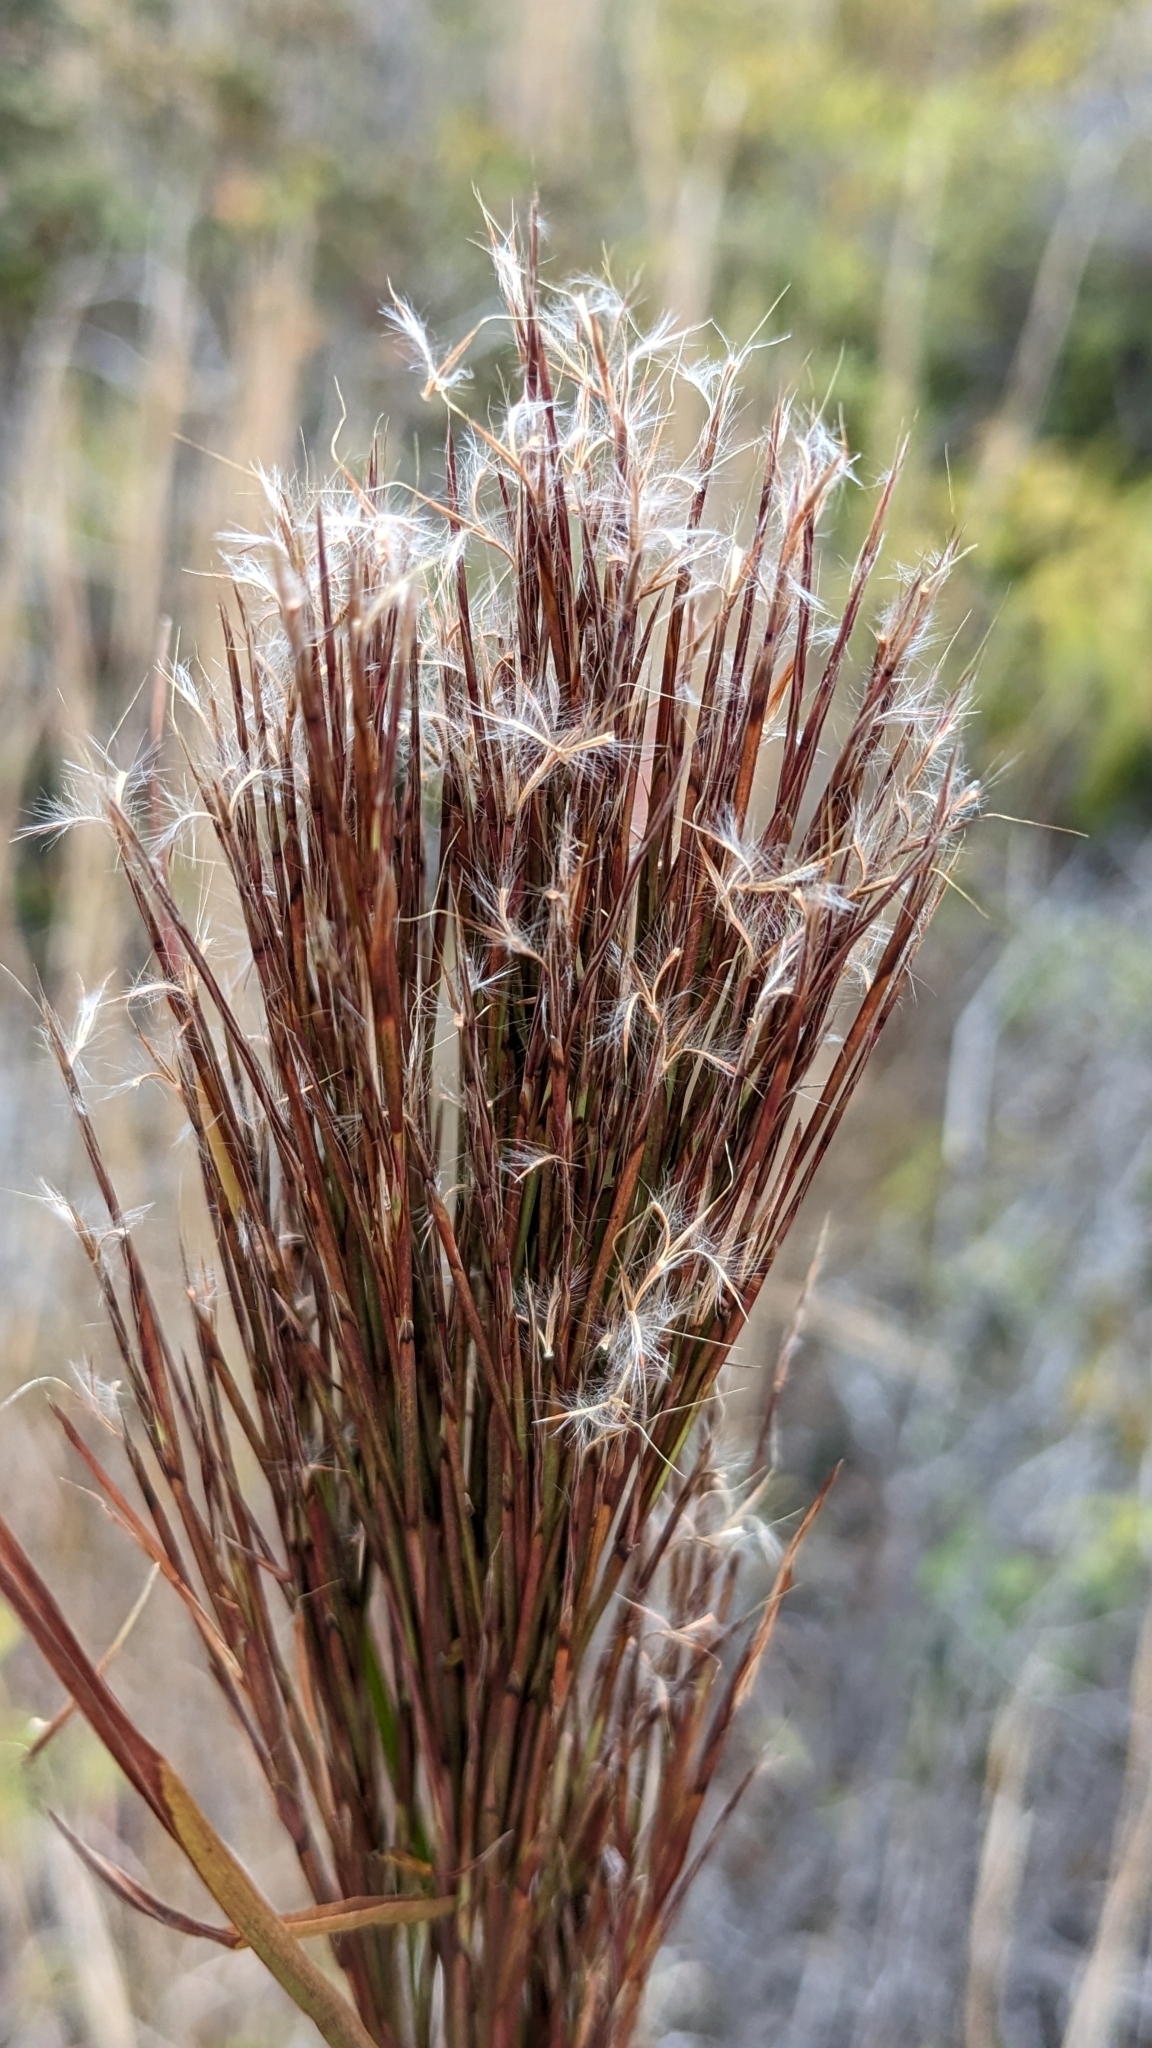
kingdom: Plantae
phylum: Tracheophyta
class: Liliopsida
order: Poales
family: Poaceae
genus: Schizachyrium
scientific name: Schizachyrium microstachyum
